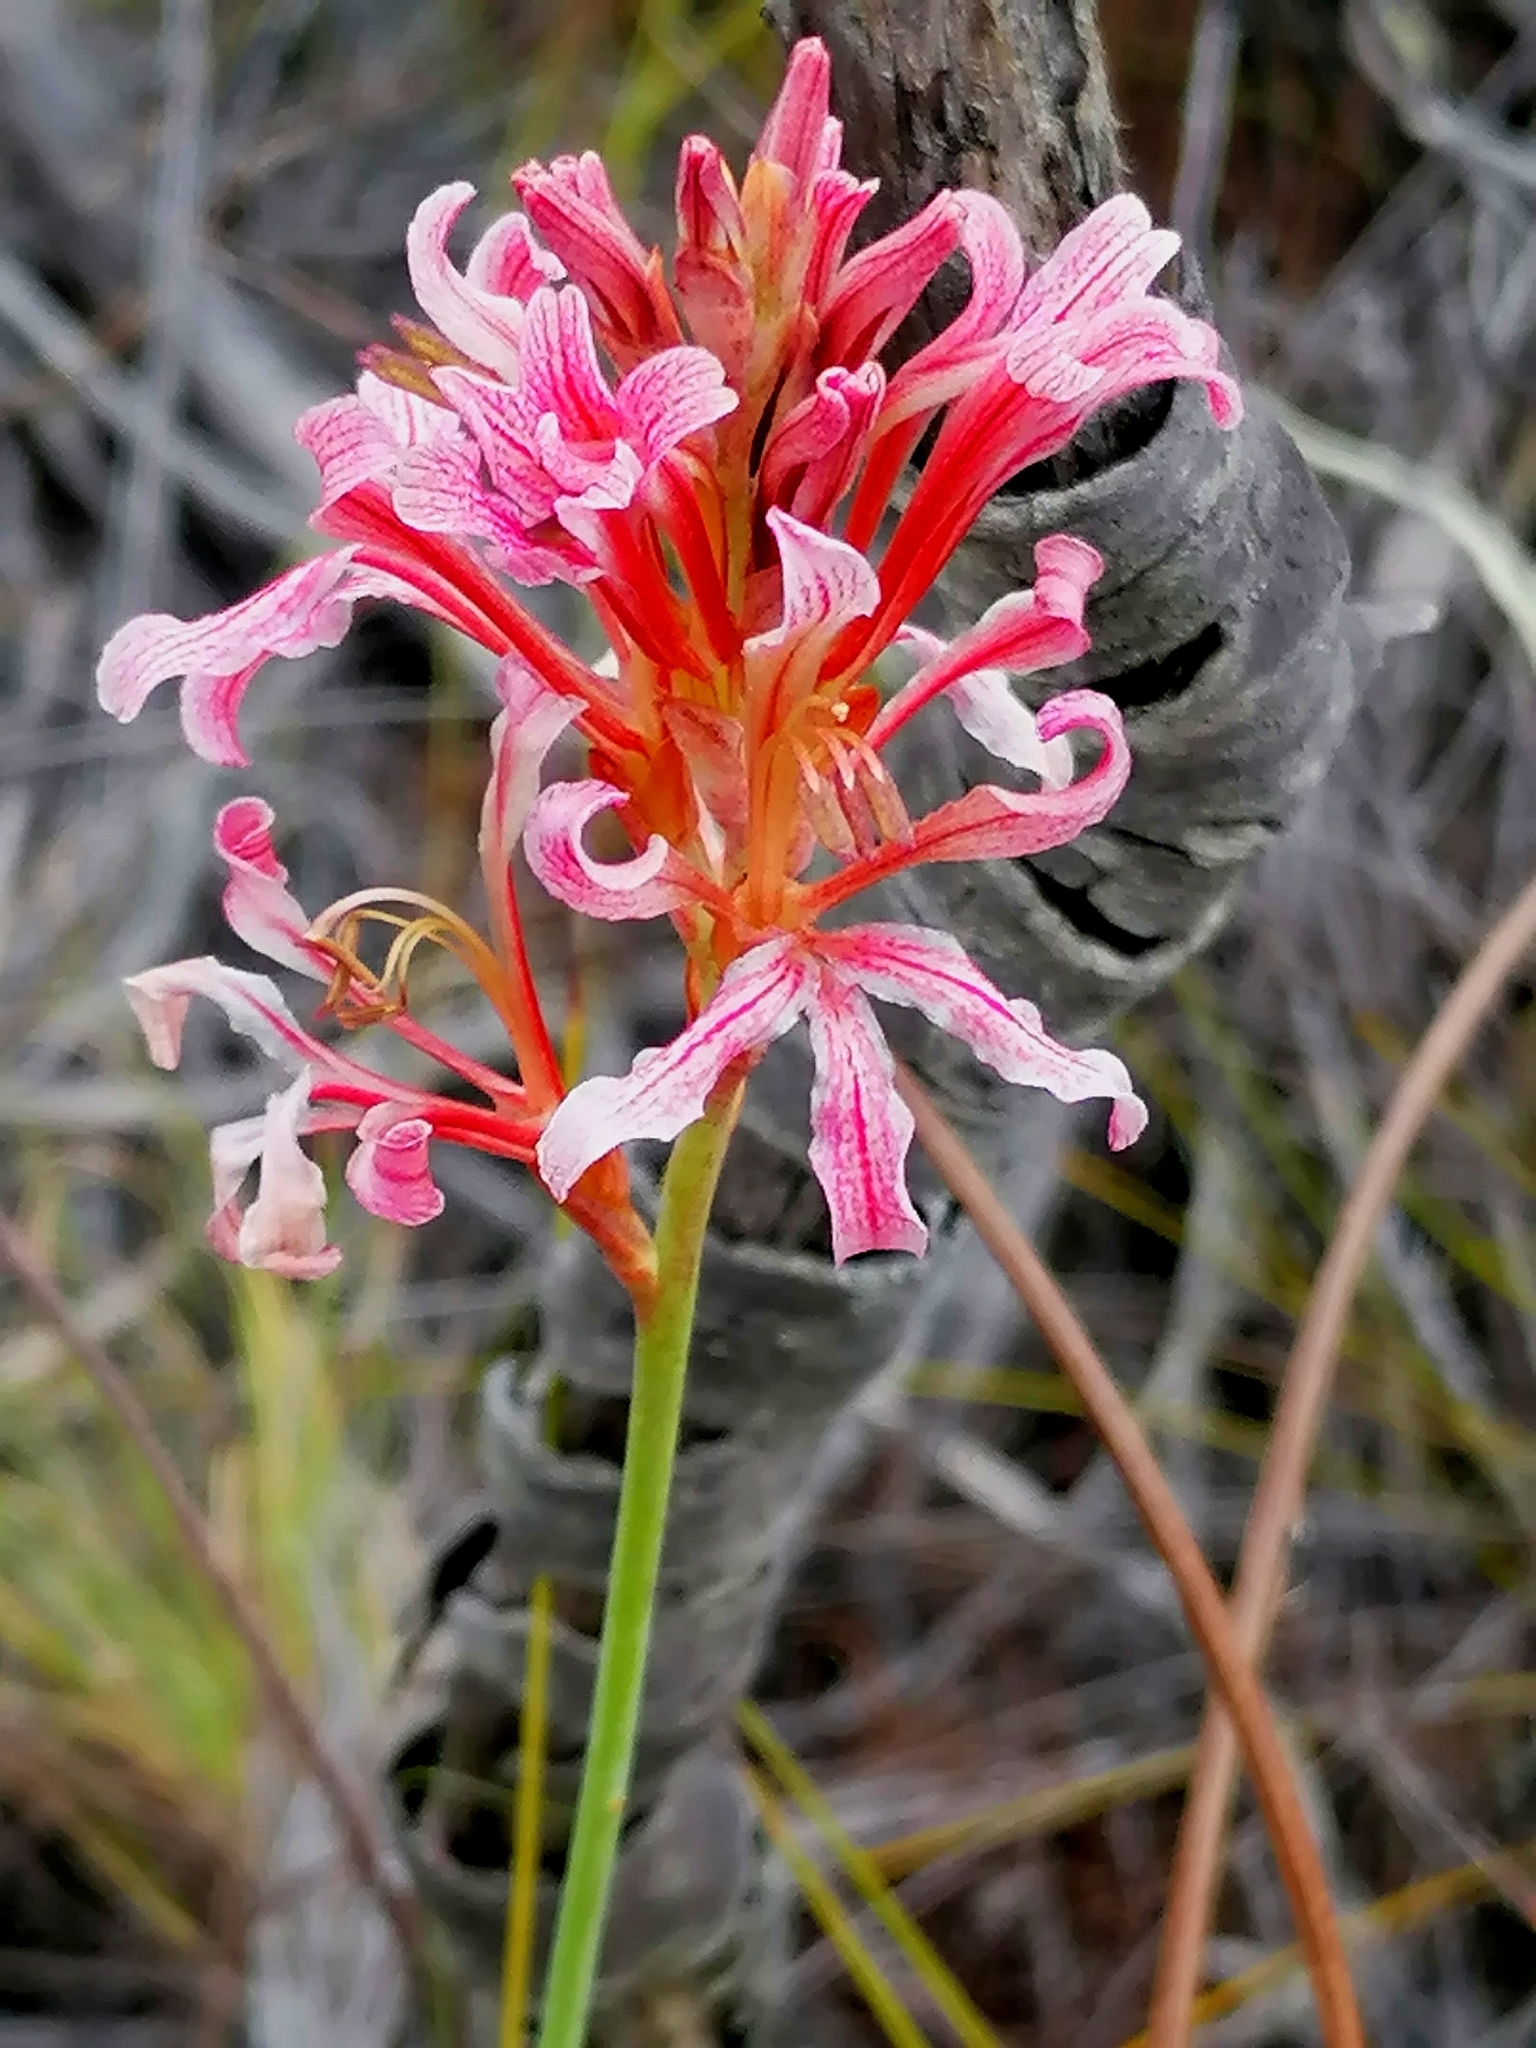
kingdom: Plantae
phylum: Tracheophyta
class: Liliopsida
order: Asparagales
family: Iridaceae
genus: Tritoniopsis
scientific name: Tritoniopsis dodii
